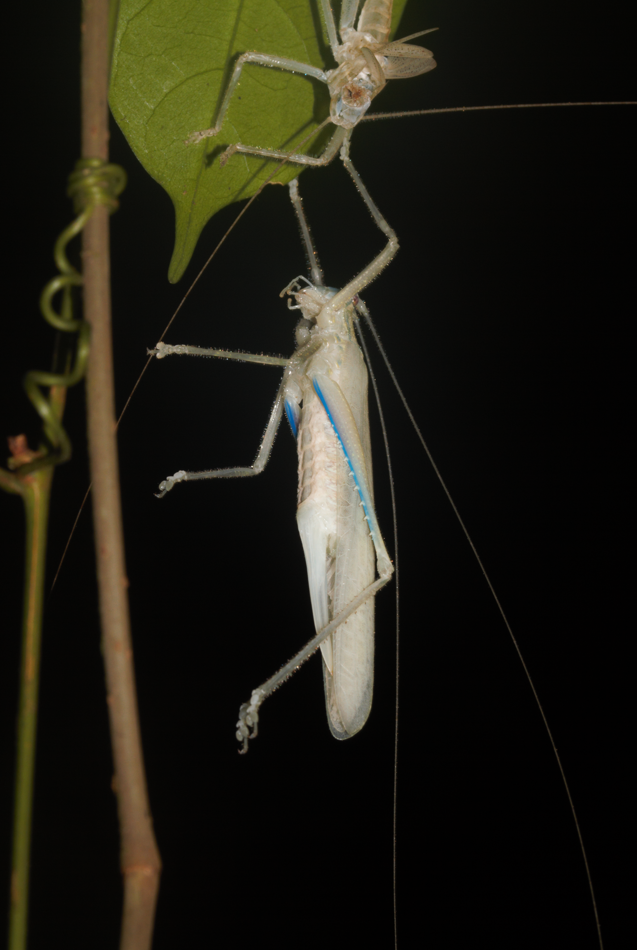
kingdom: Animalia
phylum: Arthropoda
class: Insecta
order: Orthoptera
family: Tettigoniidae
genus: Eumecopterus
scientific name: Eumecopterus incisus
